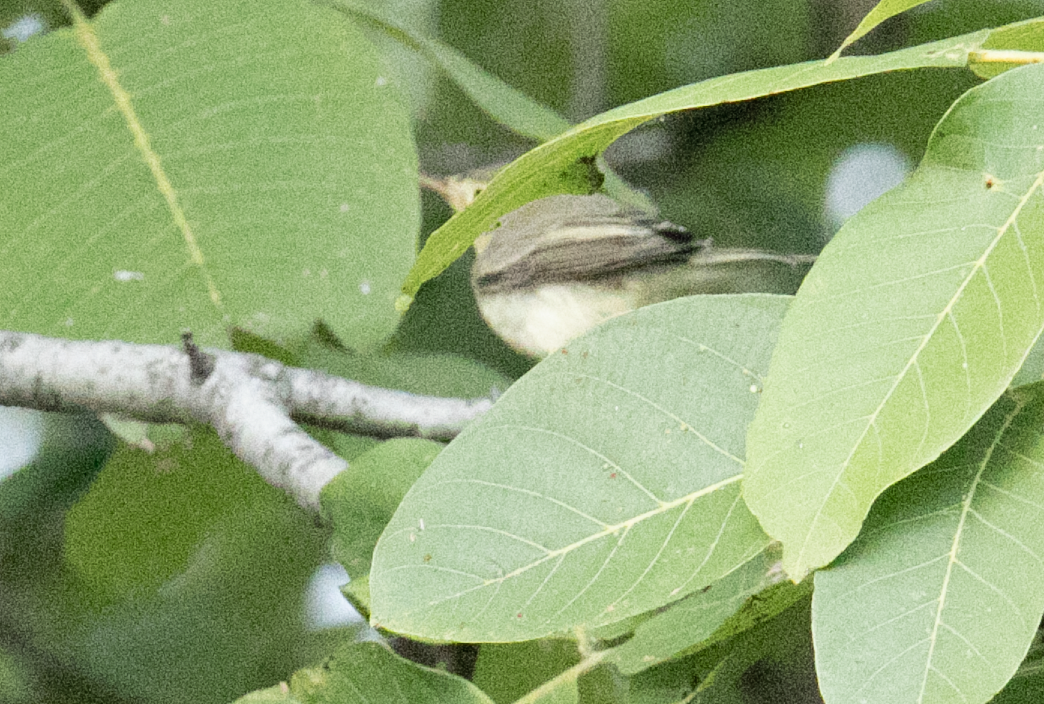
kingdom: Animalia
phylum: Chordata
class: Aves
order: Passeriformes
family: Acrocephalidae
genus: Hippolais
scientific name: Hippolais icterina
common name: Icterine warbler
